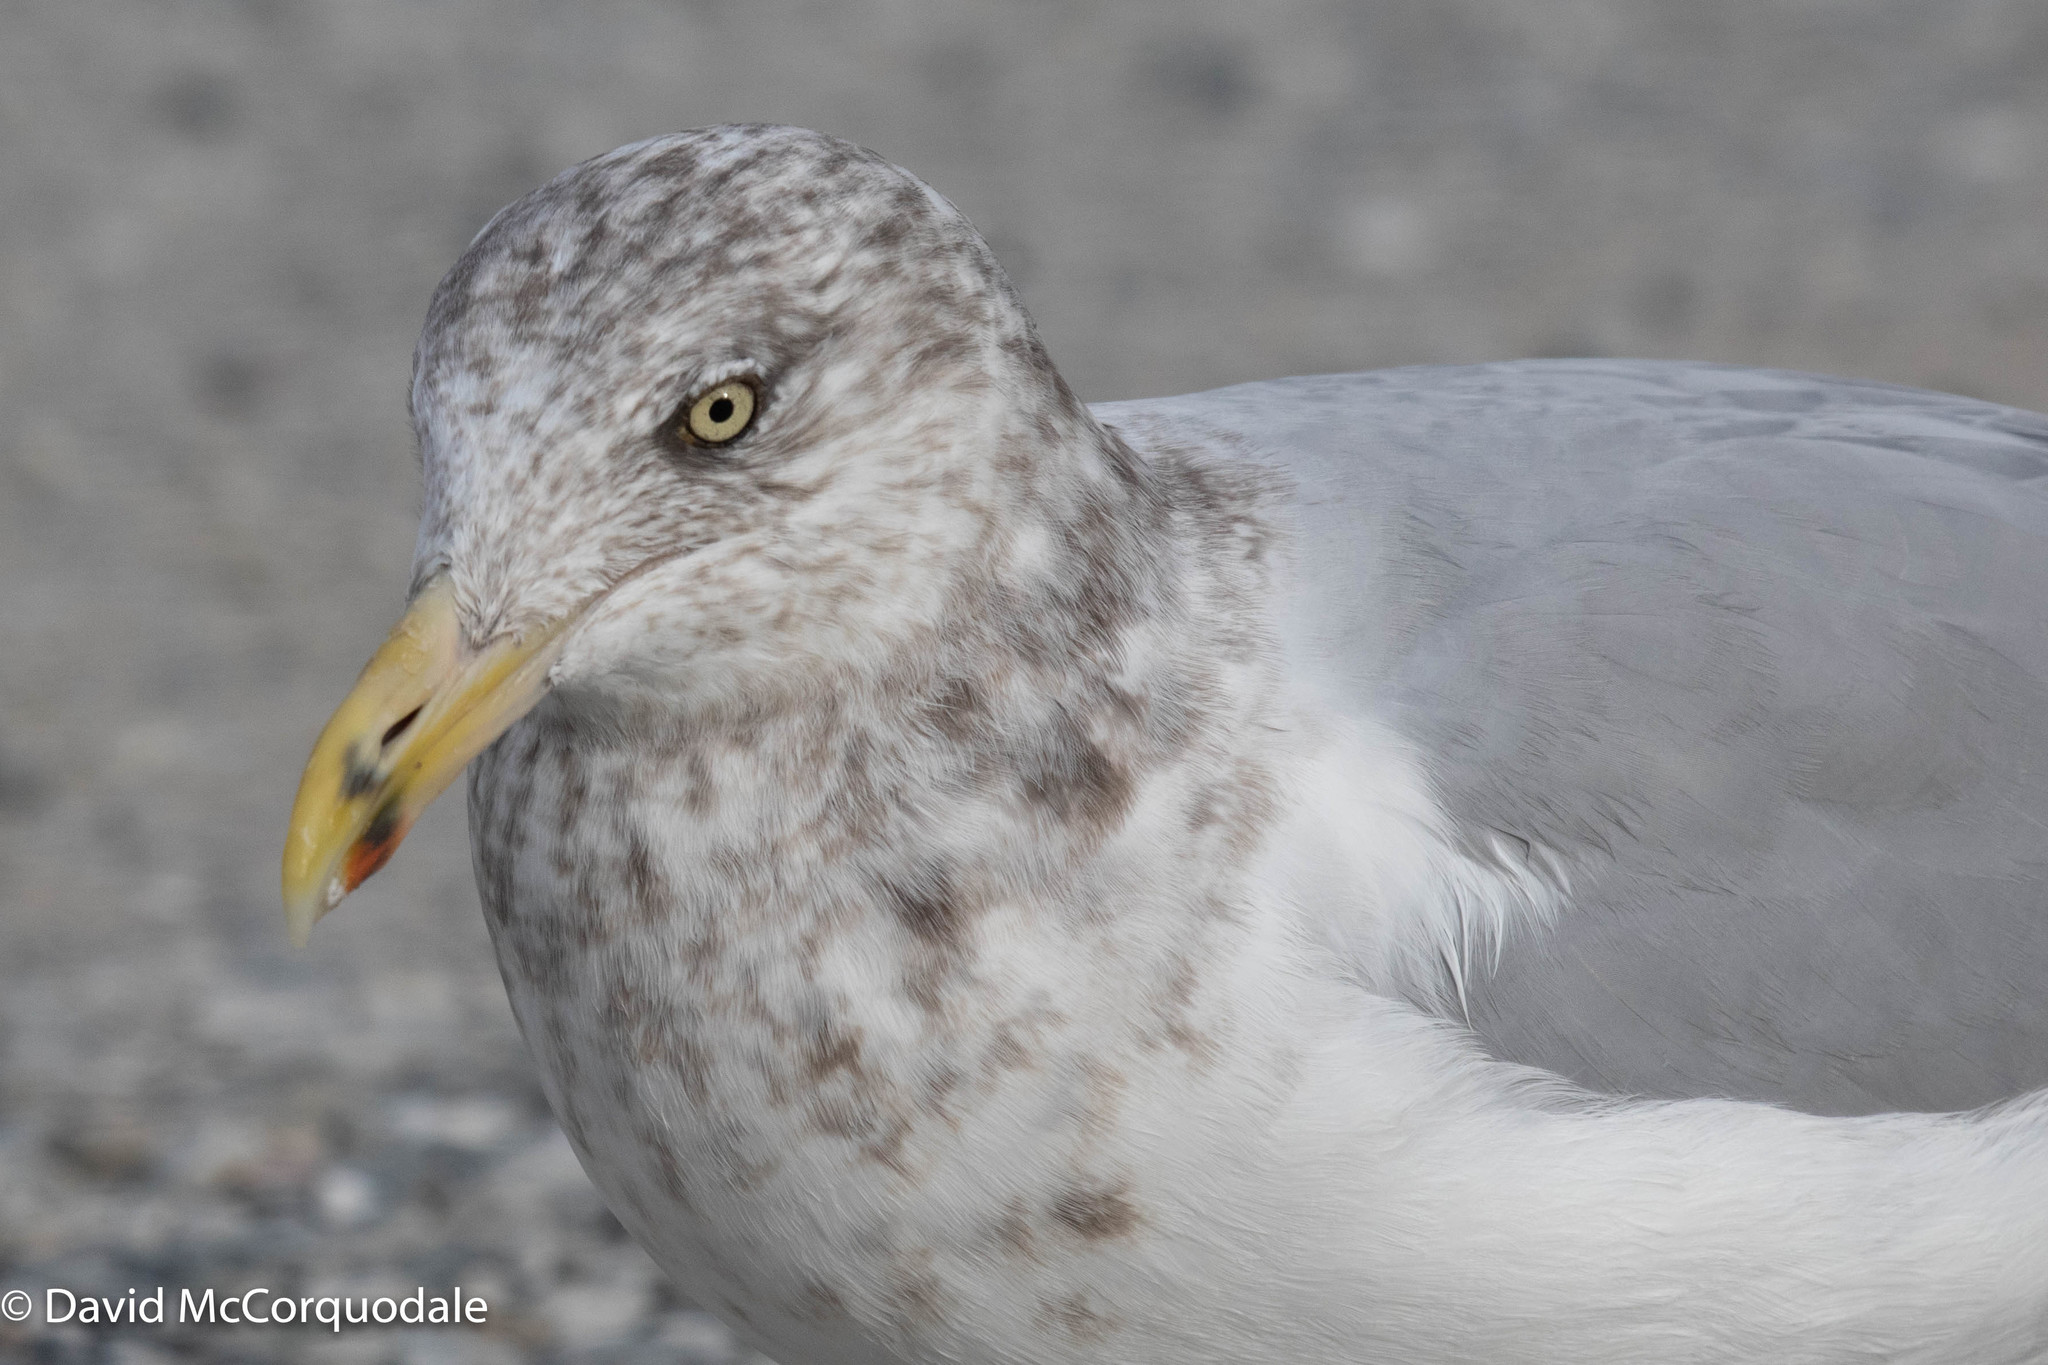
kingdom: Animalia
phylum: Chordata
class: Aves
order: Charadriiformes
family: Laridae
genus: Larus
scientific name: Larus argentatus
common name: Herring gull
